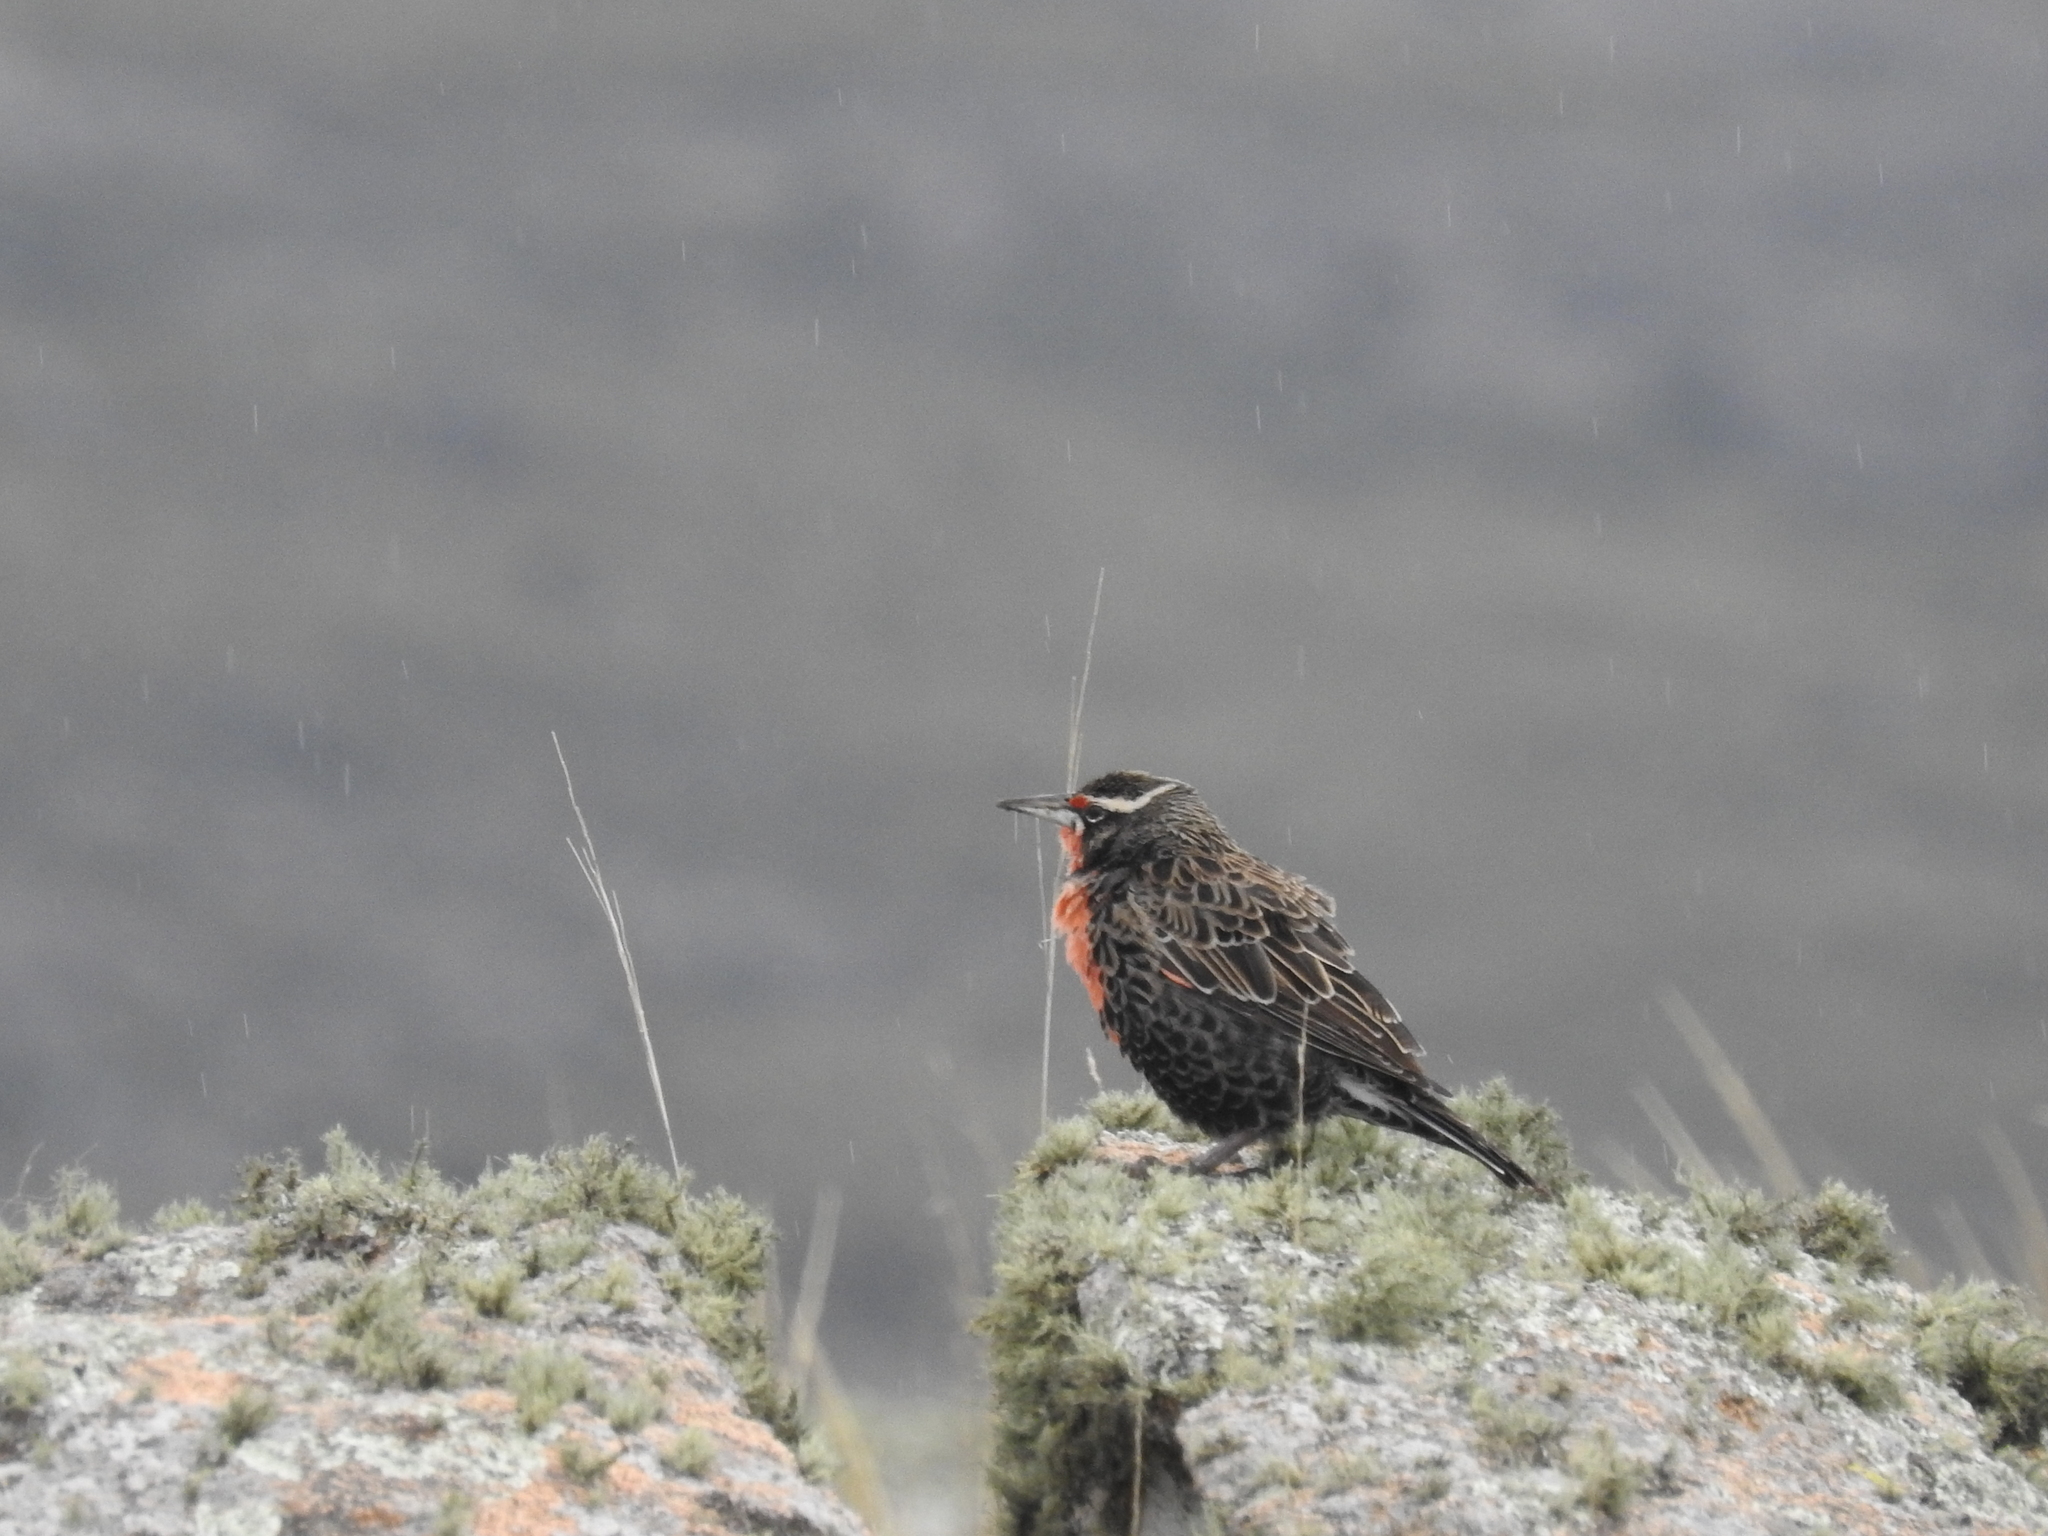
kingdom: Animalia
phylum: Chordata
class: Aves
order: Passeriformes
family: Icteridae
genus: Sturnella
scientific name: Sturnella loyca
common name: Long-tailed meadowlark
